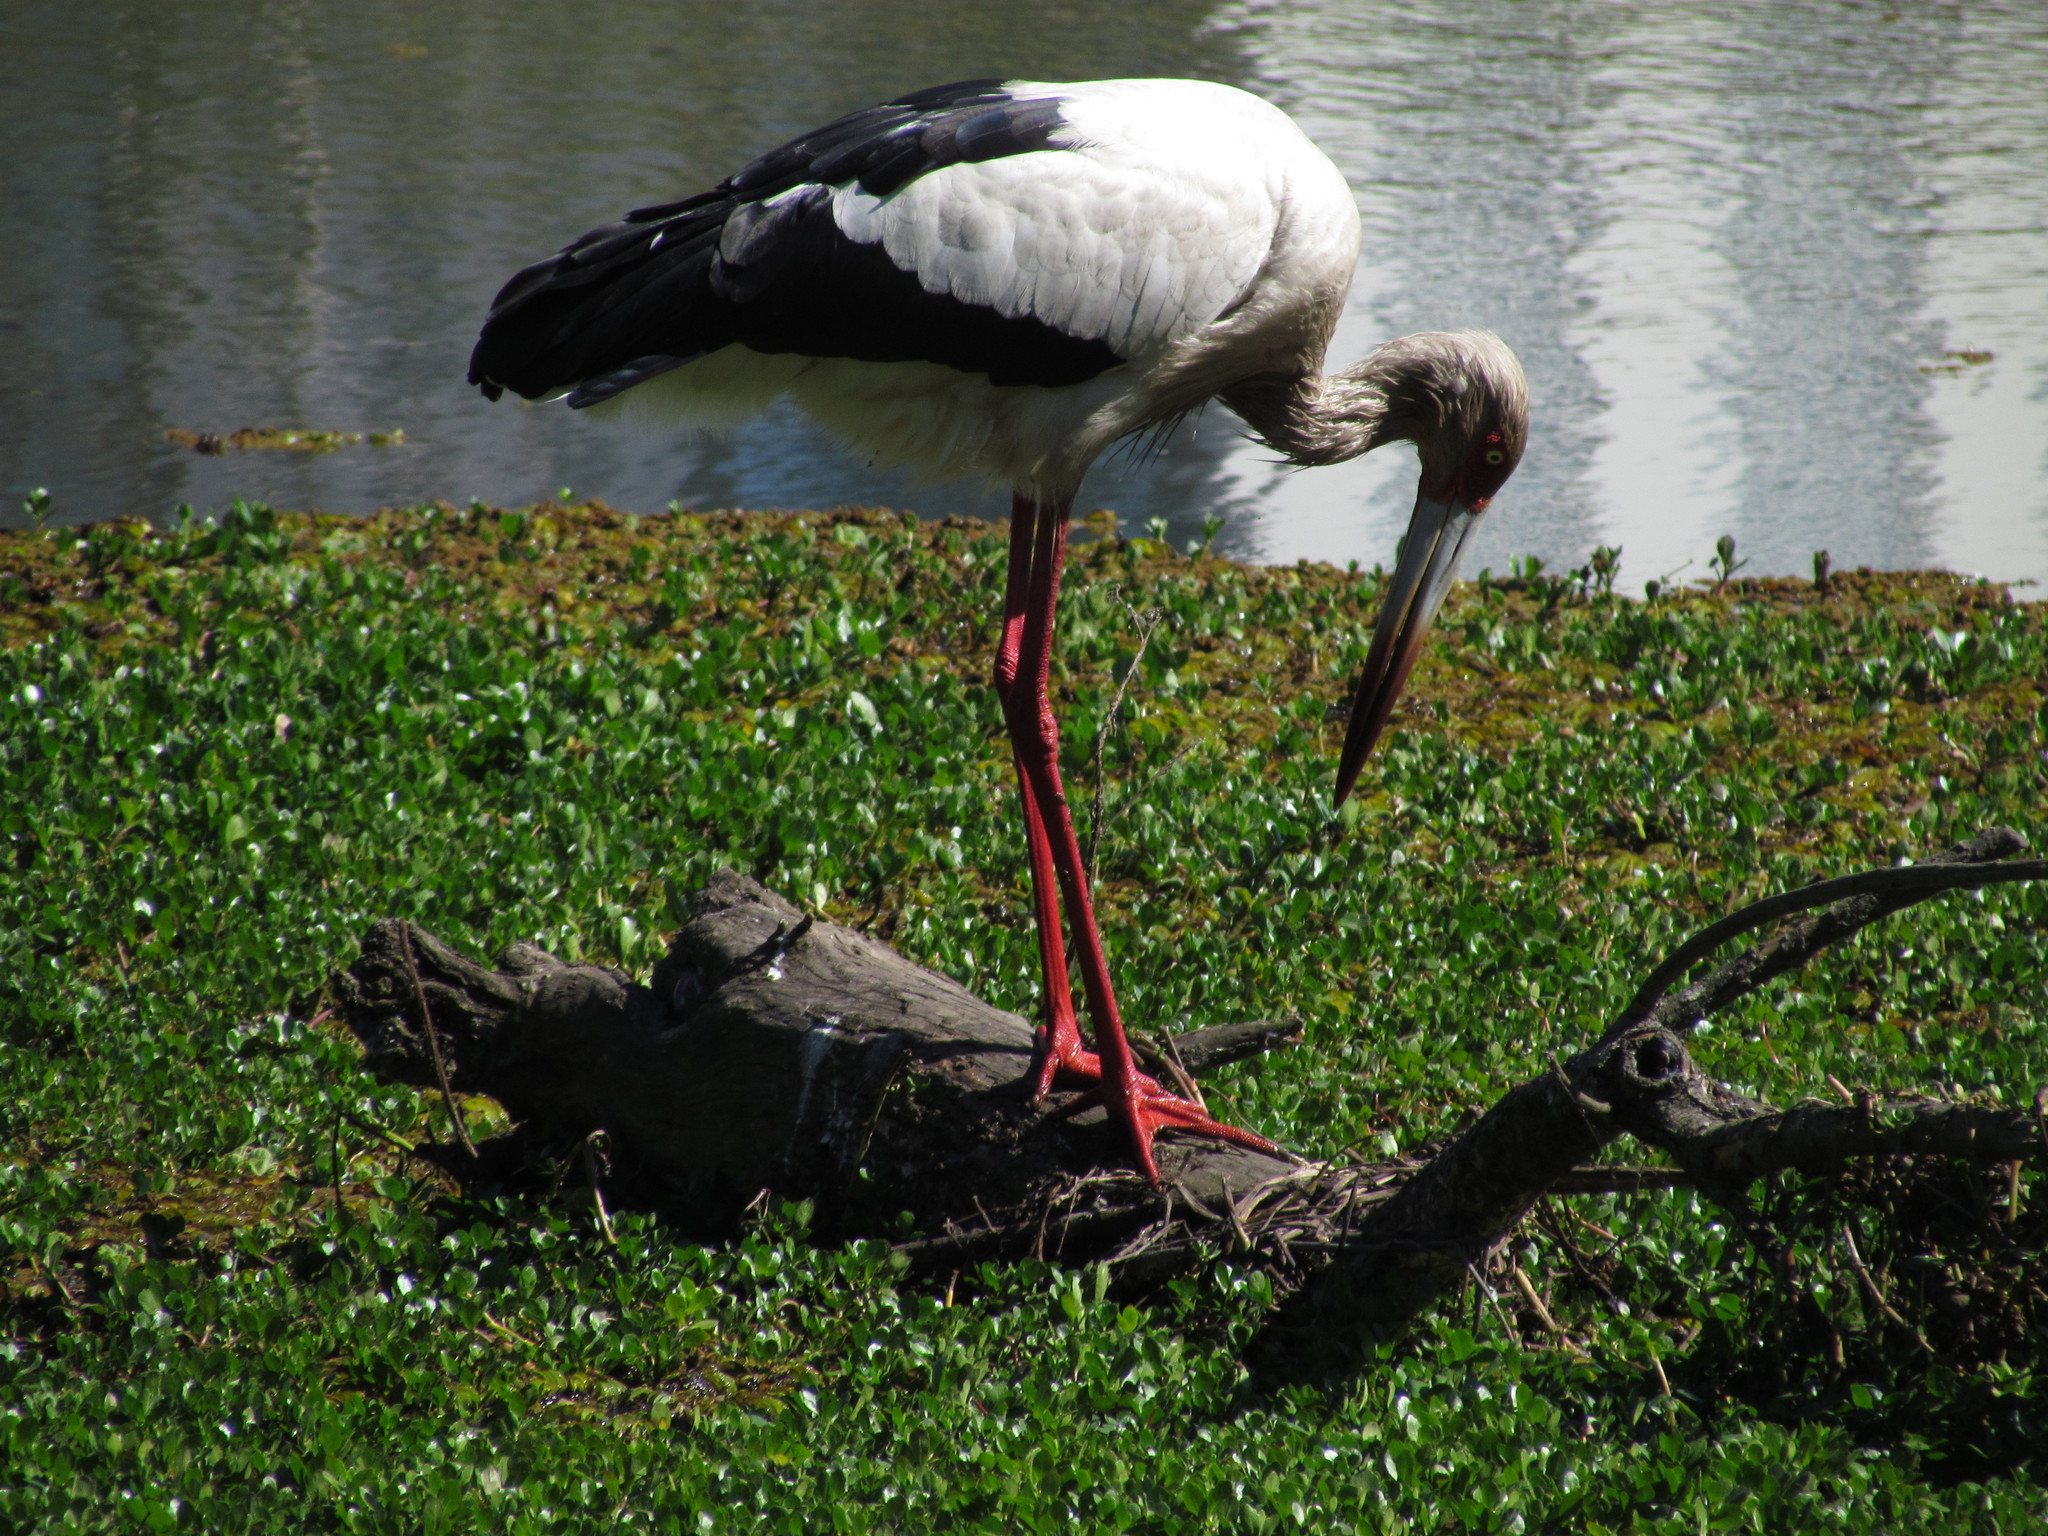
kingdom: Animalia
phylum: Chordata
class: Aves
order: Ciconiiformes
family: Ciconiidae
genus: Ciconia
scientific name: Ciconia maguari
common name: Maguari stork
